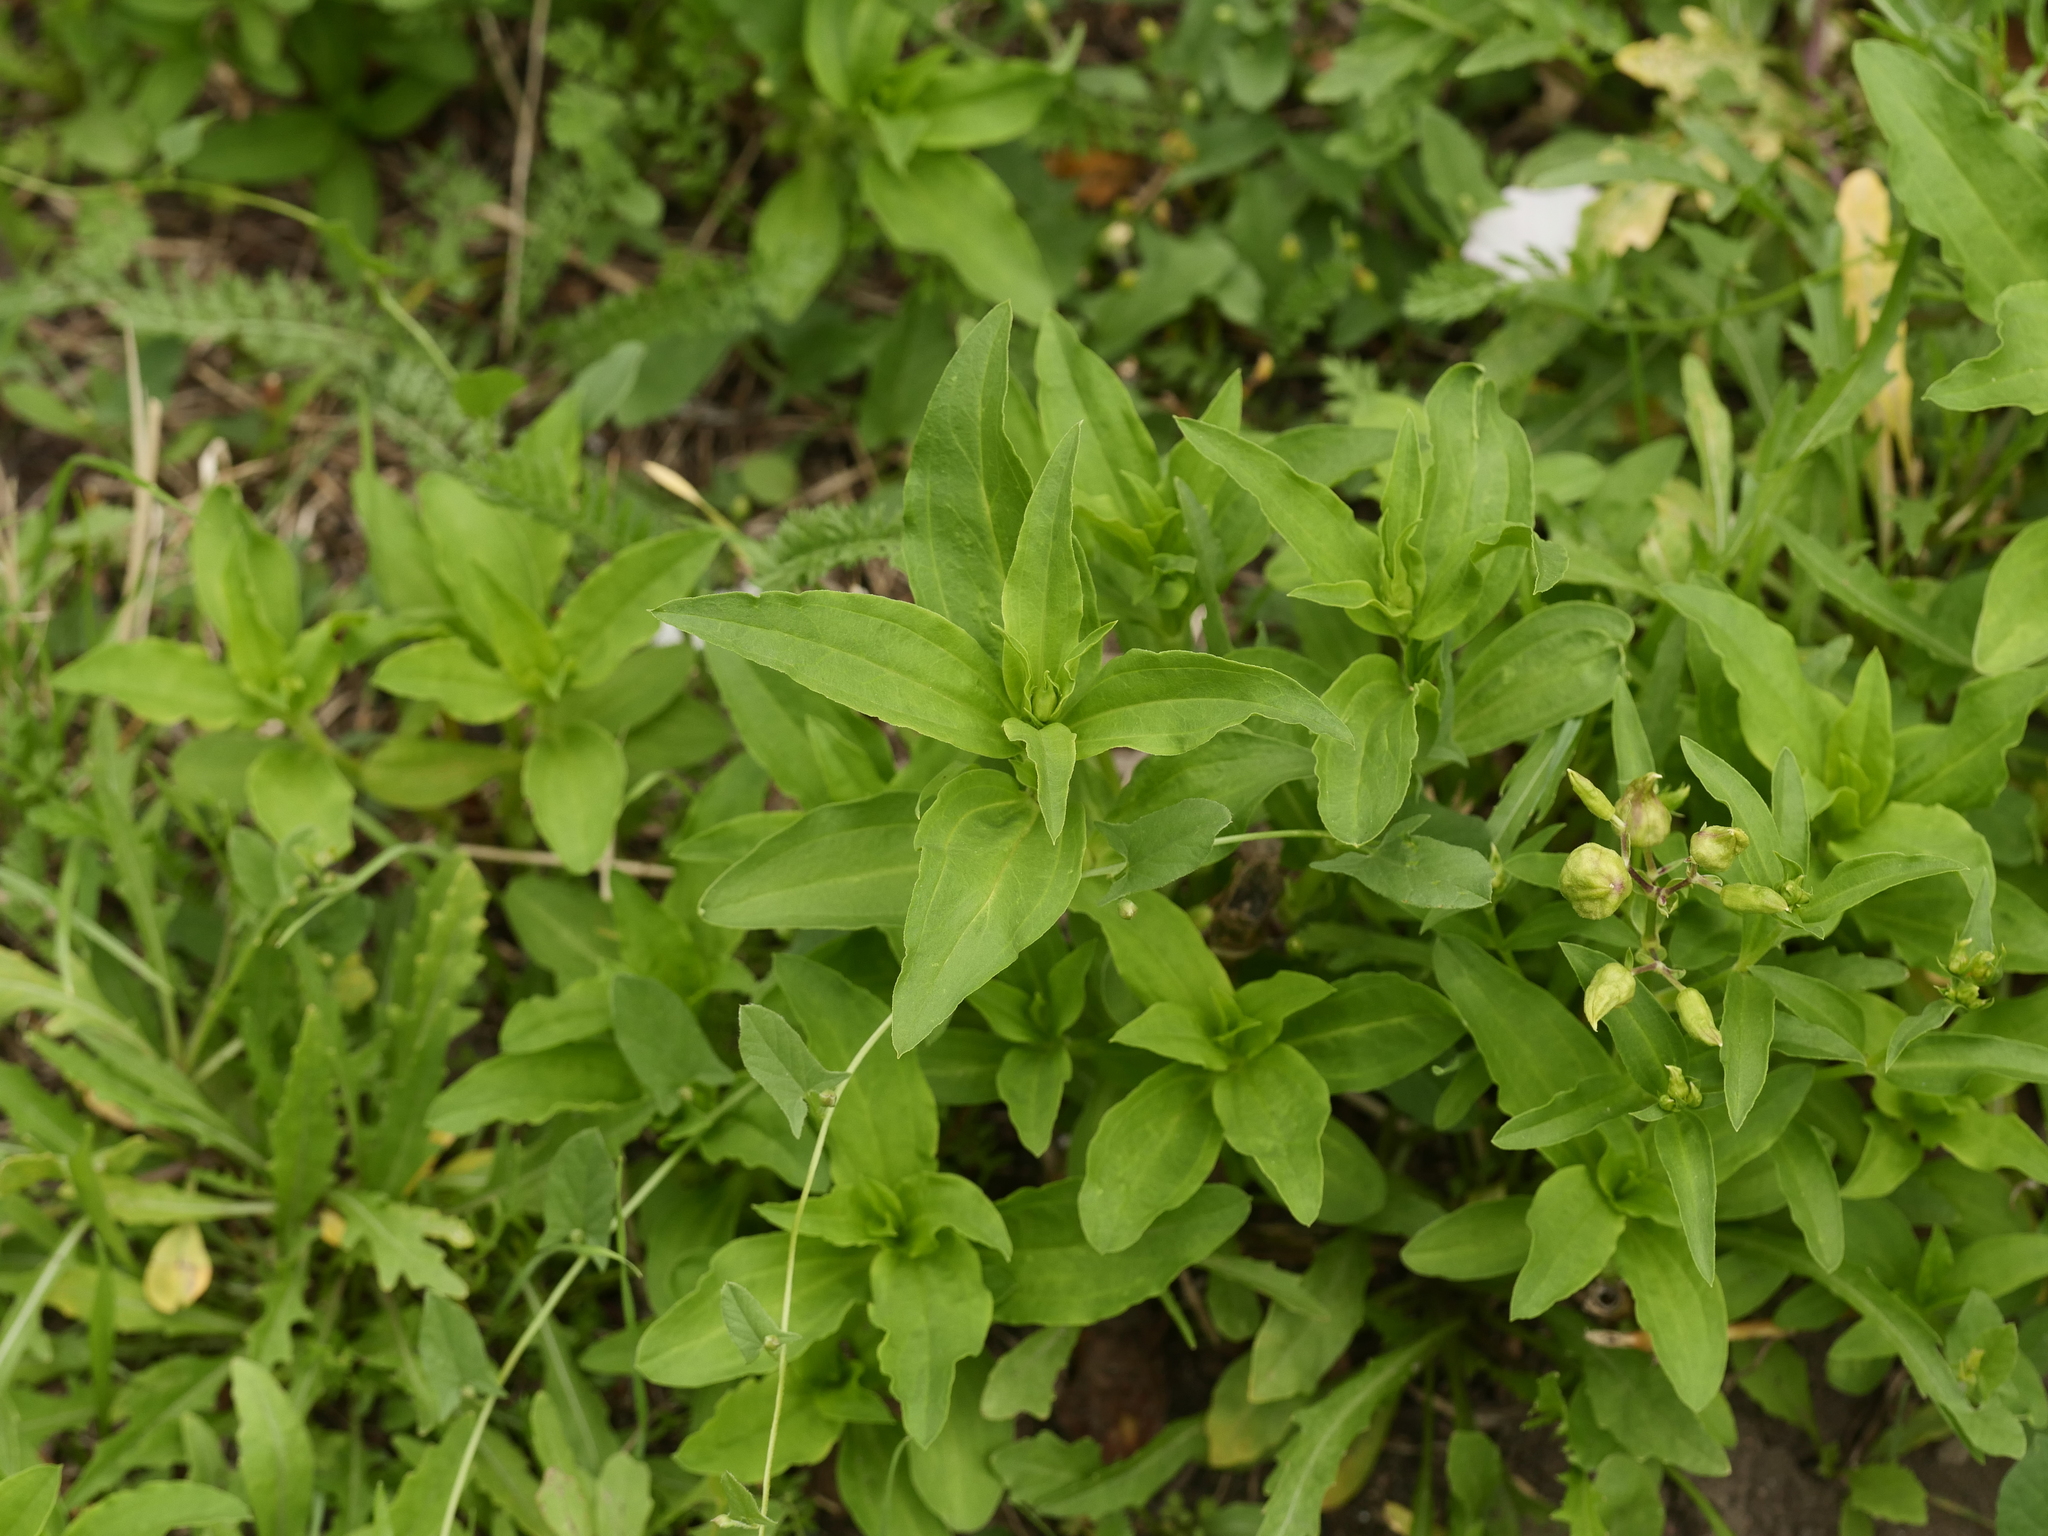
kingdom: Plantae
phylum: Tracheophyta
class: Magnoliopsida
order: Caryophyllales
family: Caryophyllaceae
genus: Saponaria
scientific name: Saponaria officinalis
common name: Soapwort
